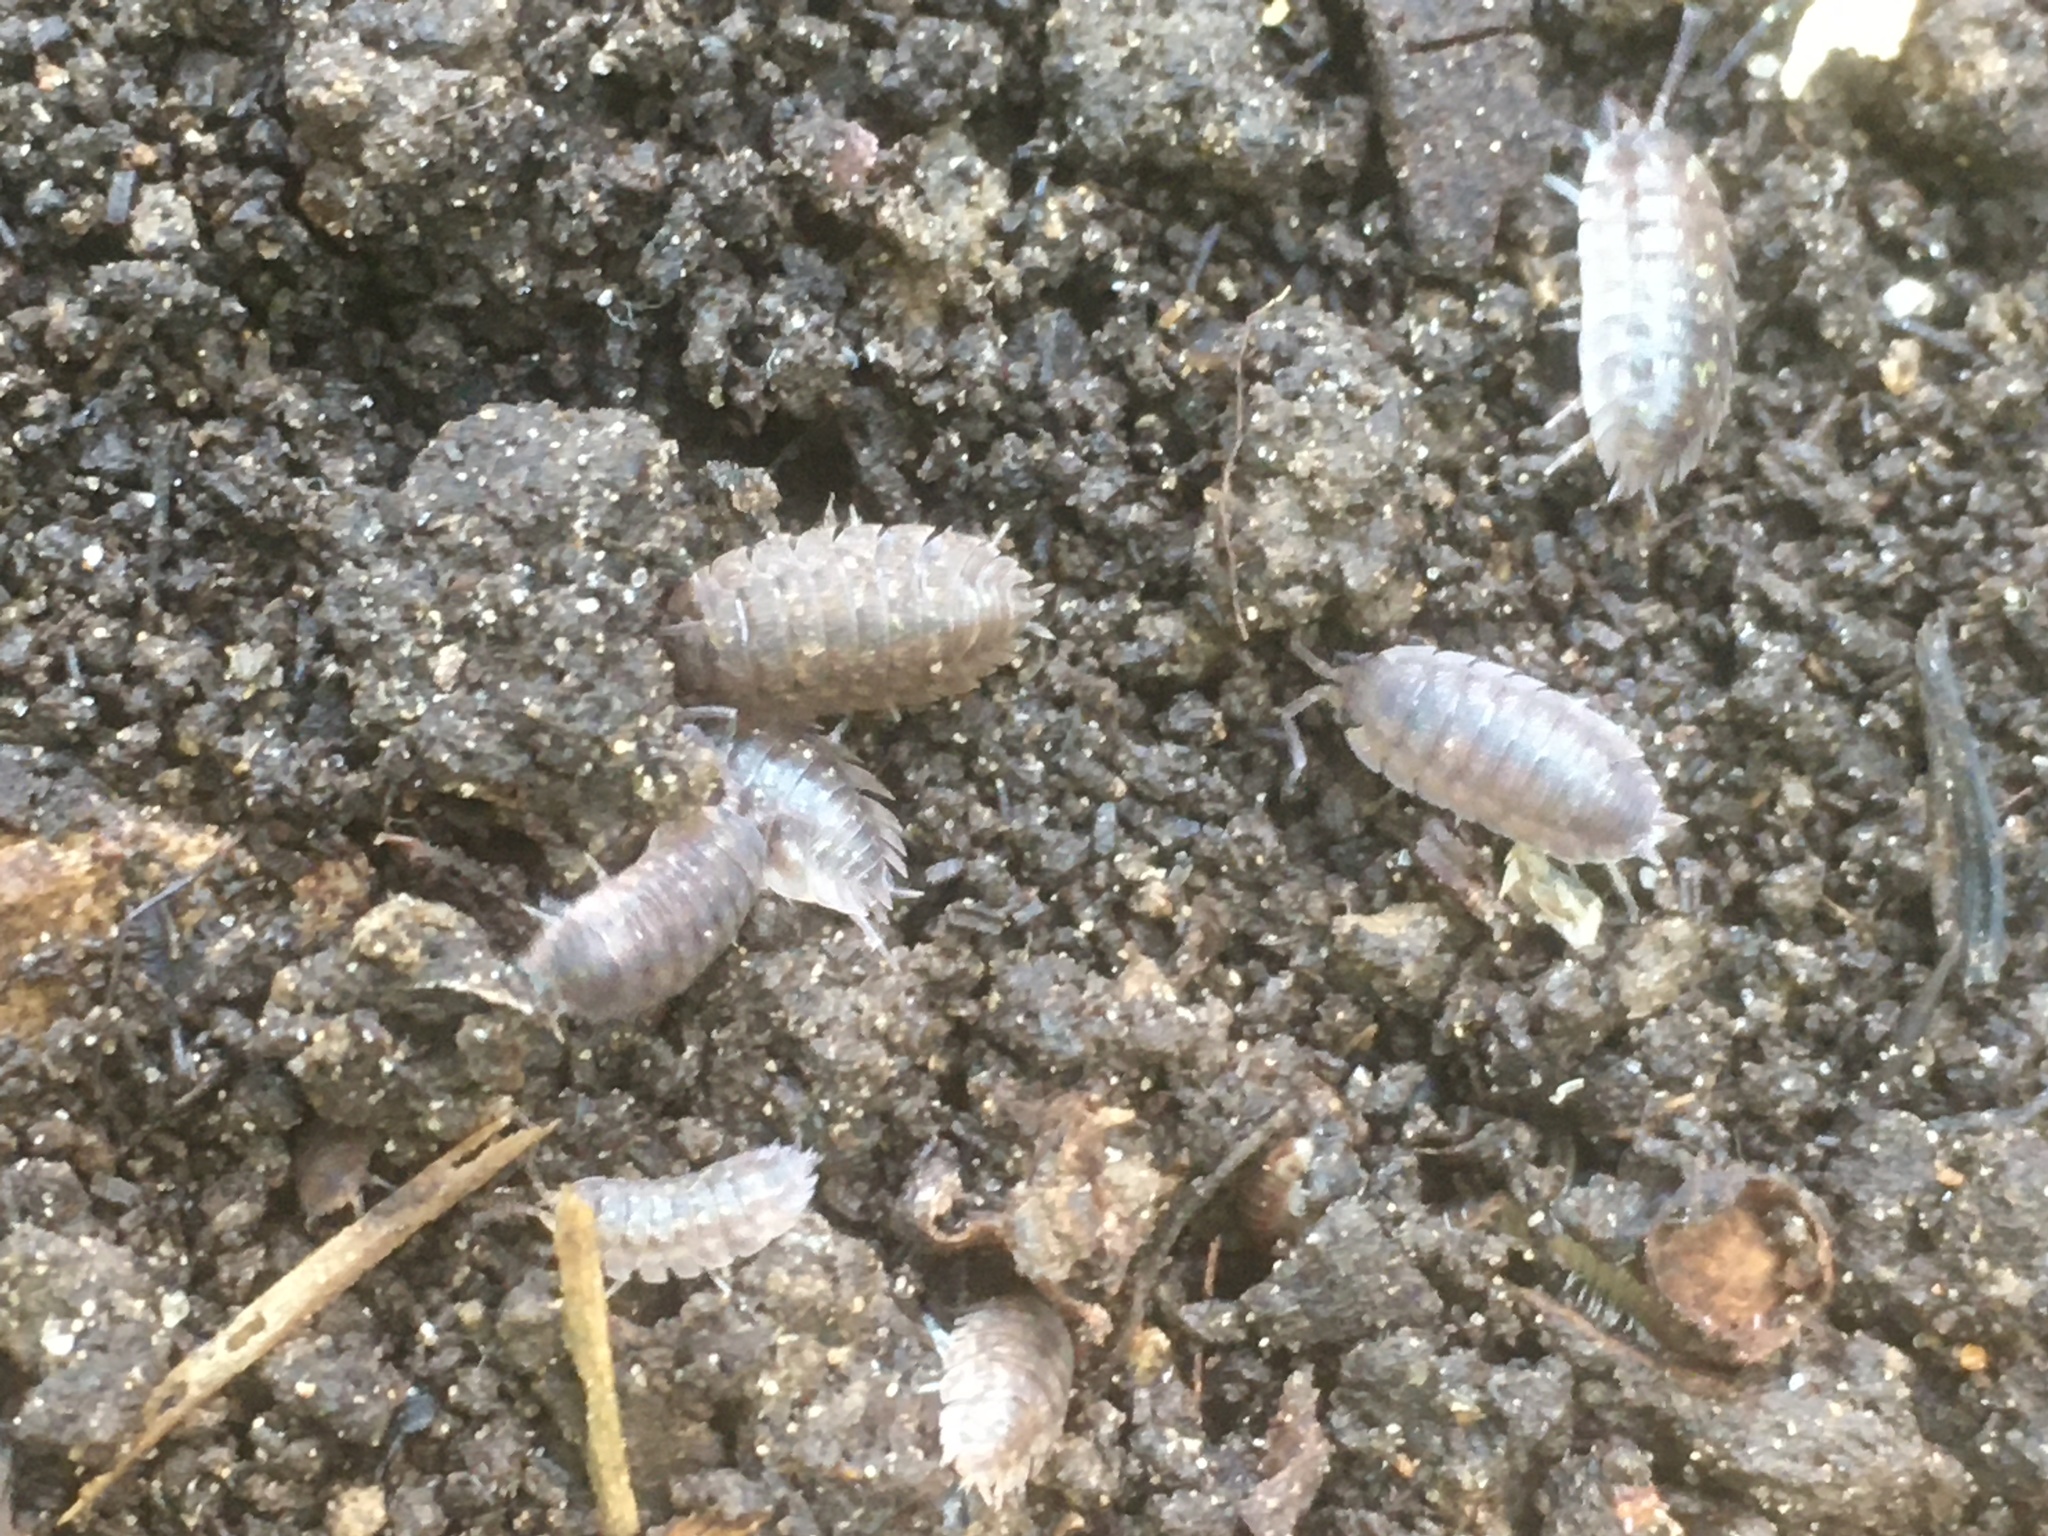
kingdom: Animalia
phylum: Arthropoda
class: Malacostraca
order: Isopoda
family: Porcellionidae
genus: Porcellio
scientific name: Porcellio scaber
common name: Common rough woodlouse
